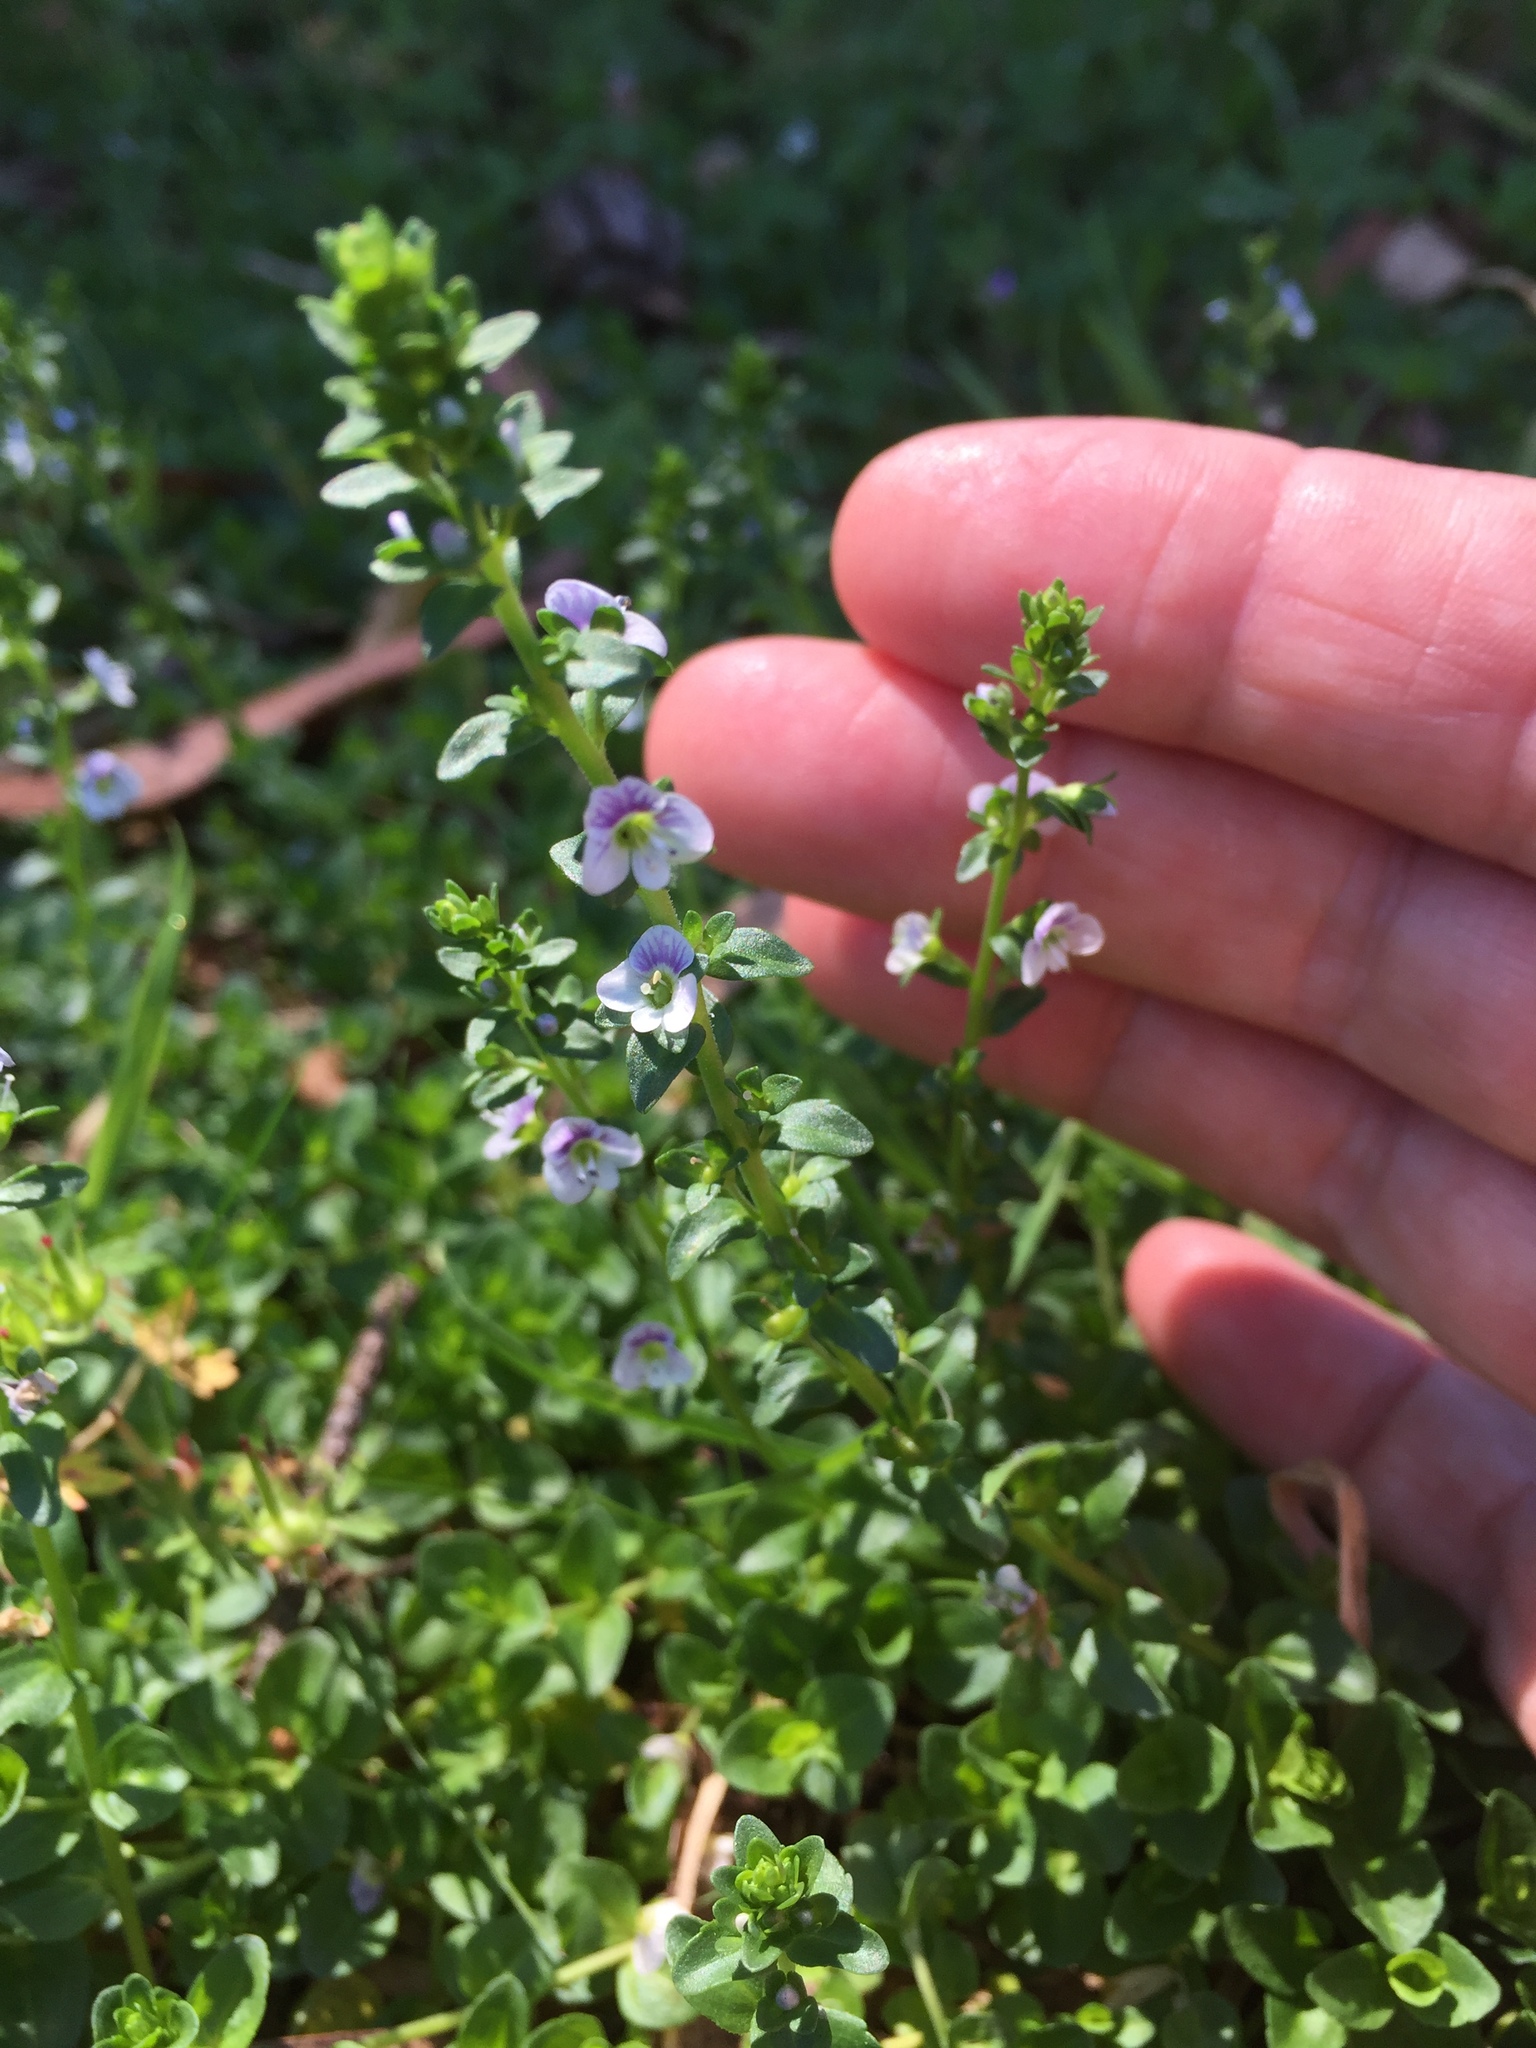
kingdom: Plantae
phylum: Tracheophyta
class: Magnoliopsida
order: Lamiales
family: Plantaginaceae
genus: Veronica
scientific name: Veronica serpyllifolia
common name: Thyme-leaved speedwell
